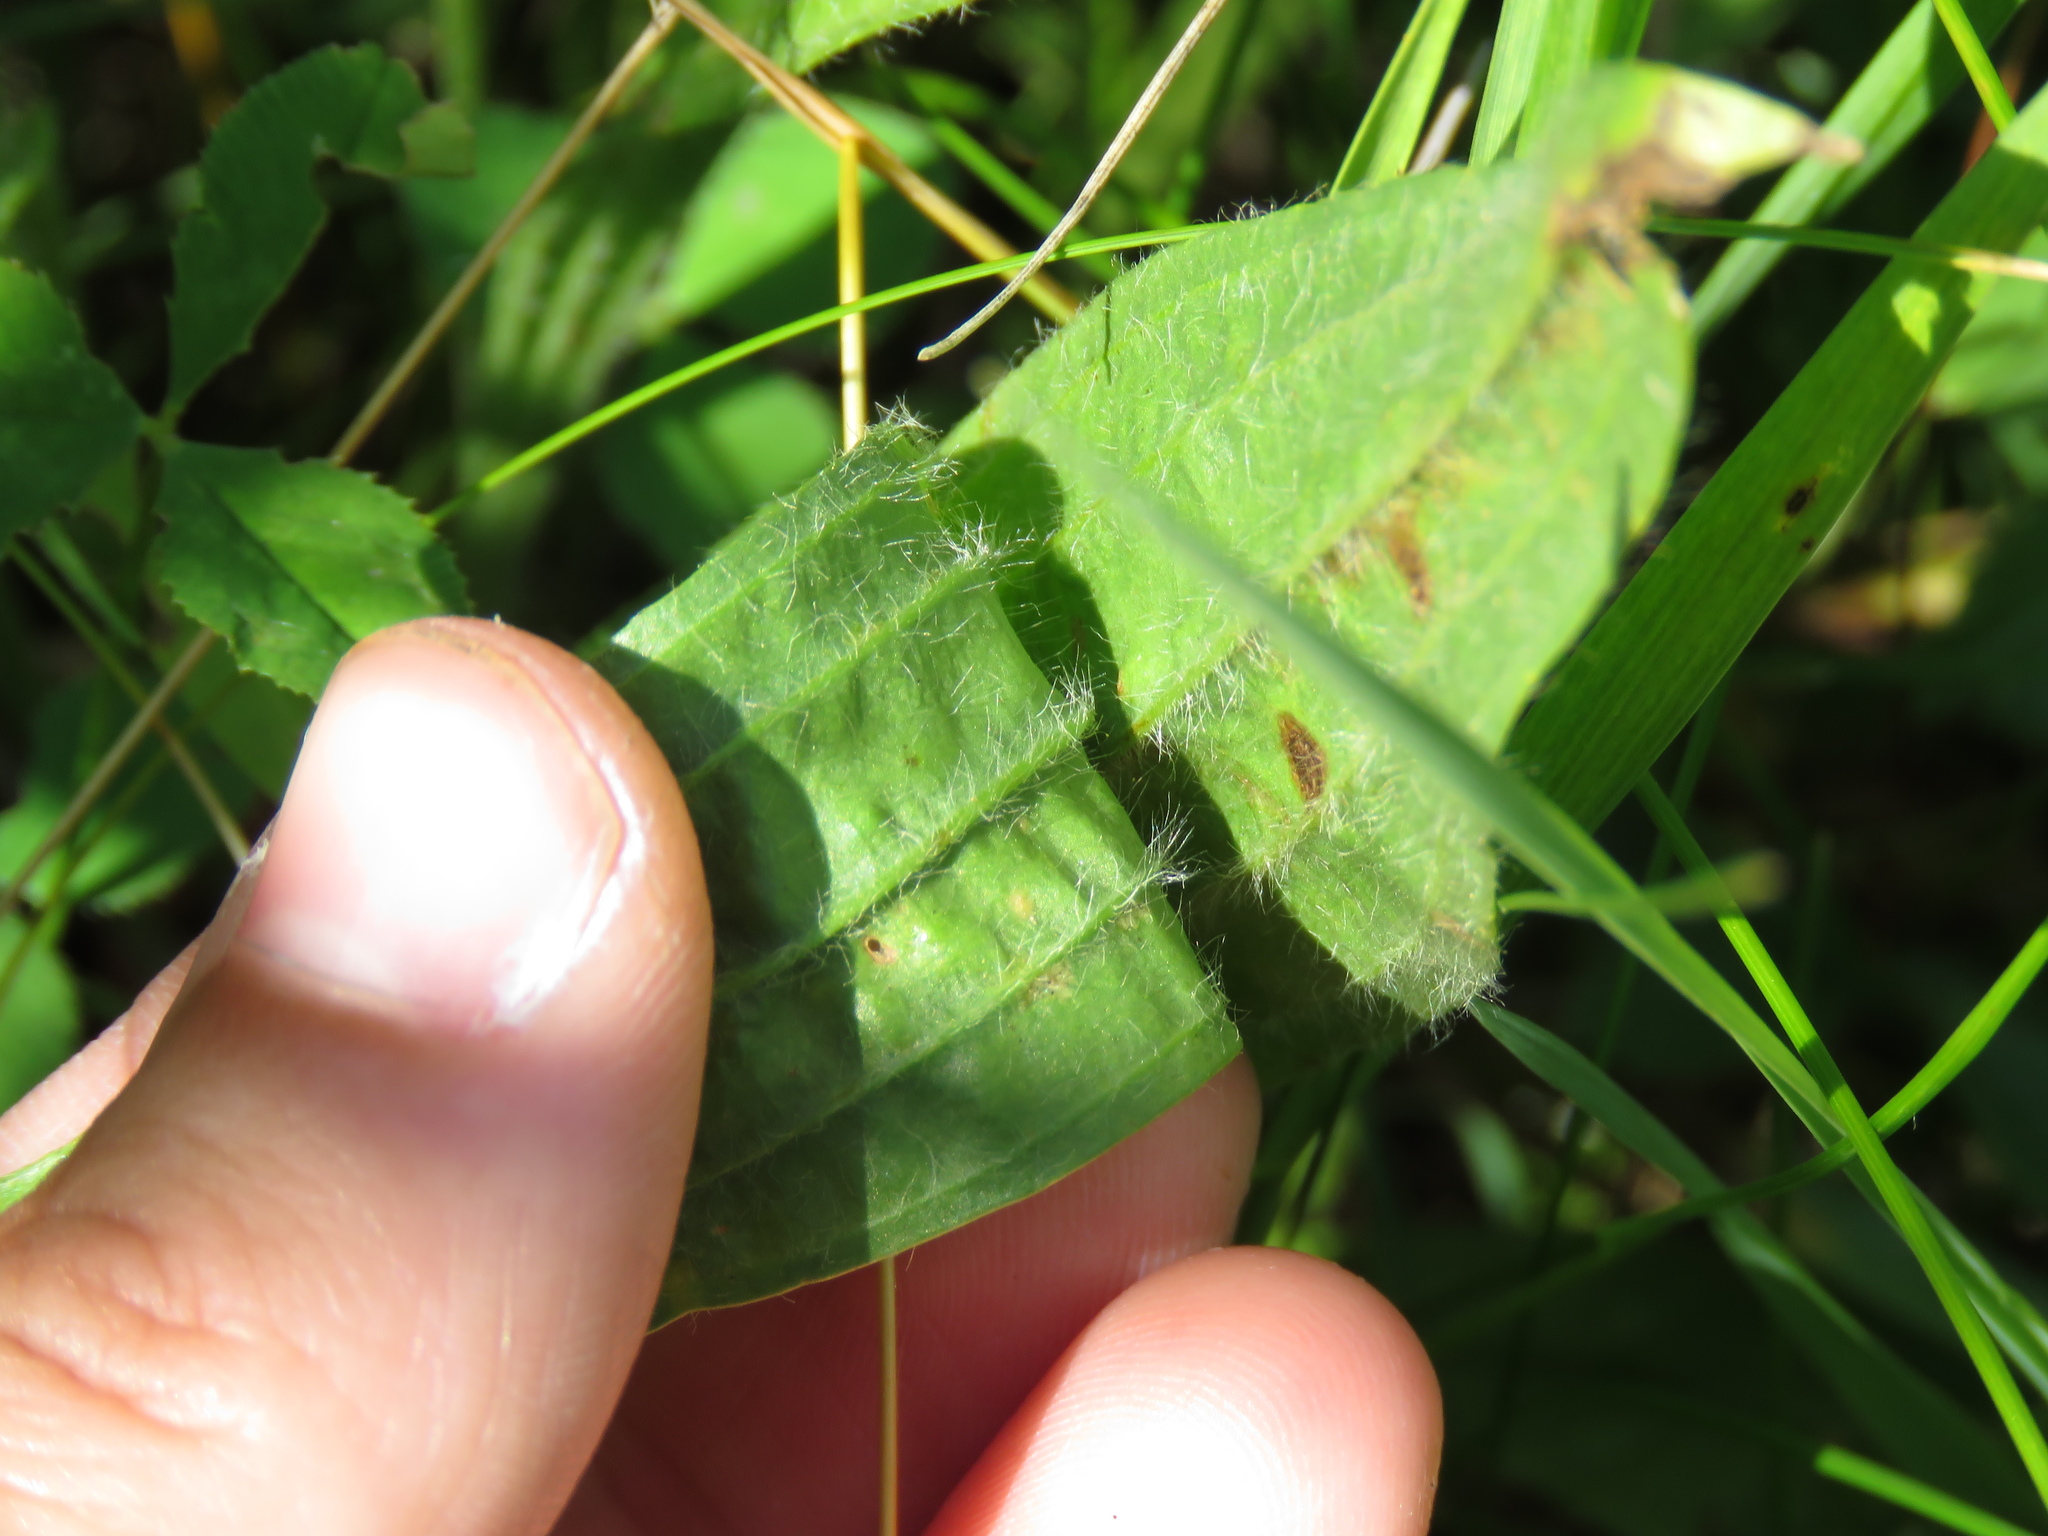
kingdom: Plantae
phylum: Tracheophyta
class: Magnoliopsida
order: Lamiales
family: Plantaginaceae
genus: Plantago
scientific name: Plantago lanceolata
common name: Ribwort plantain
